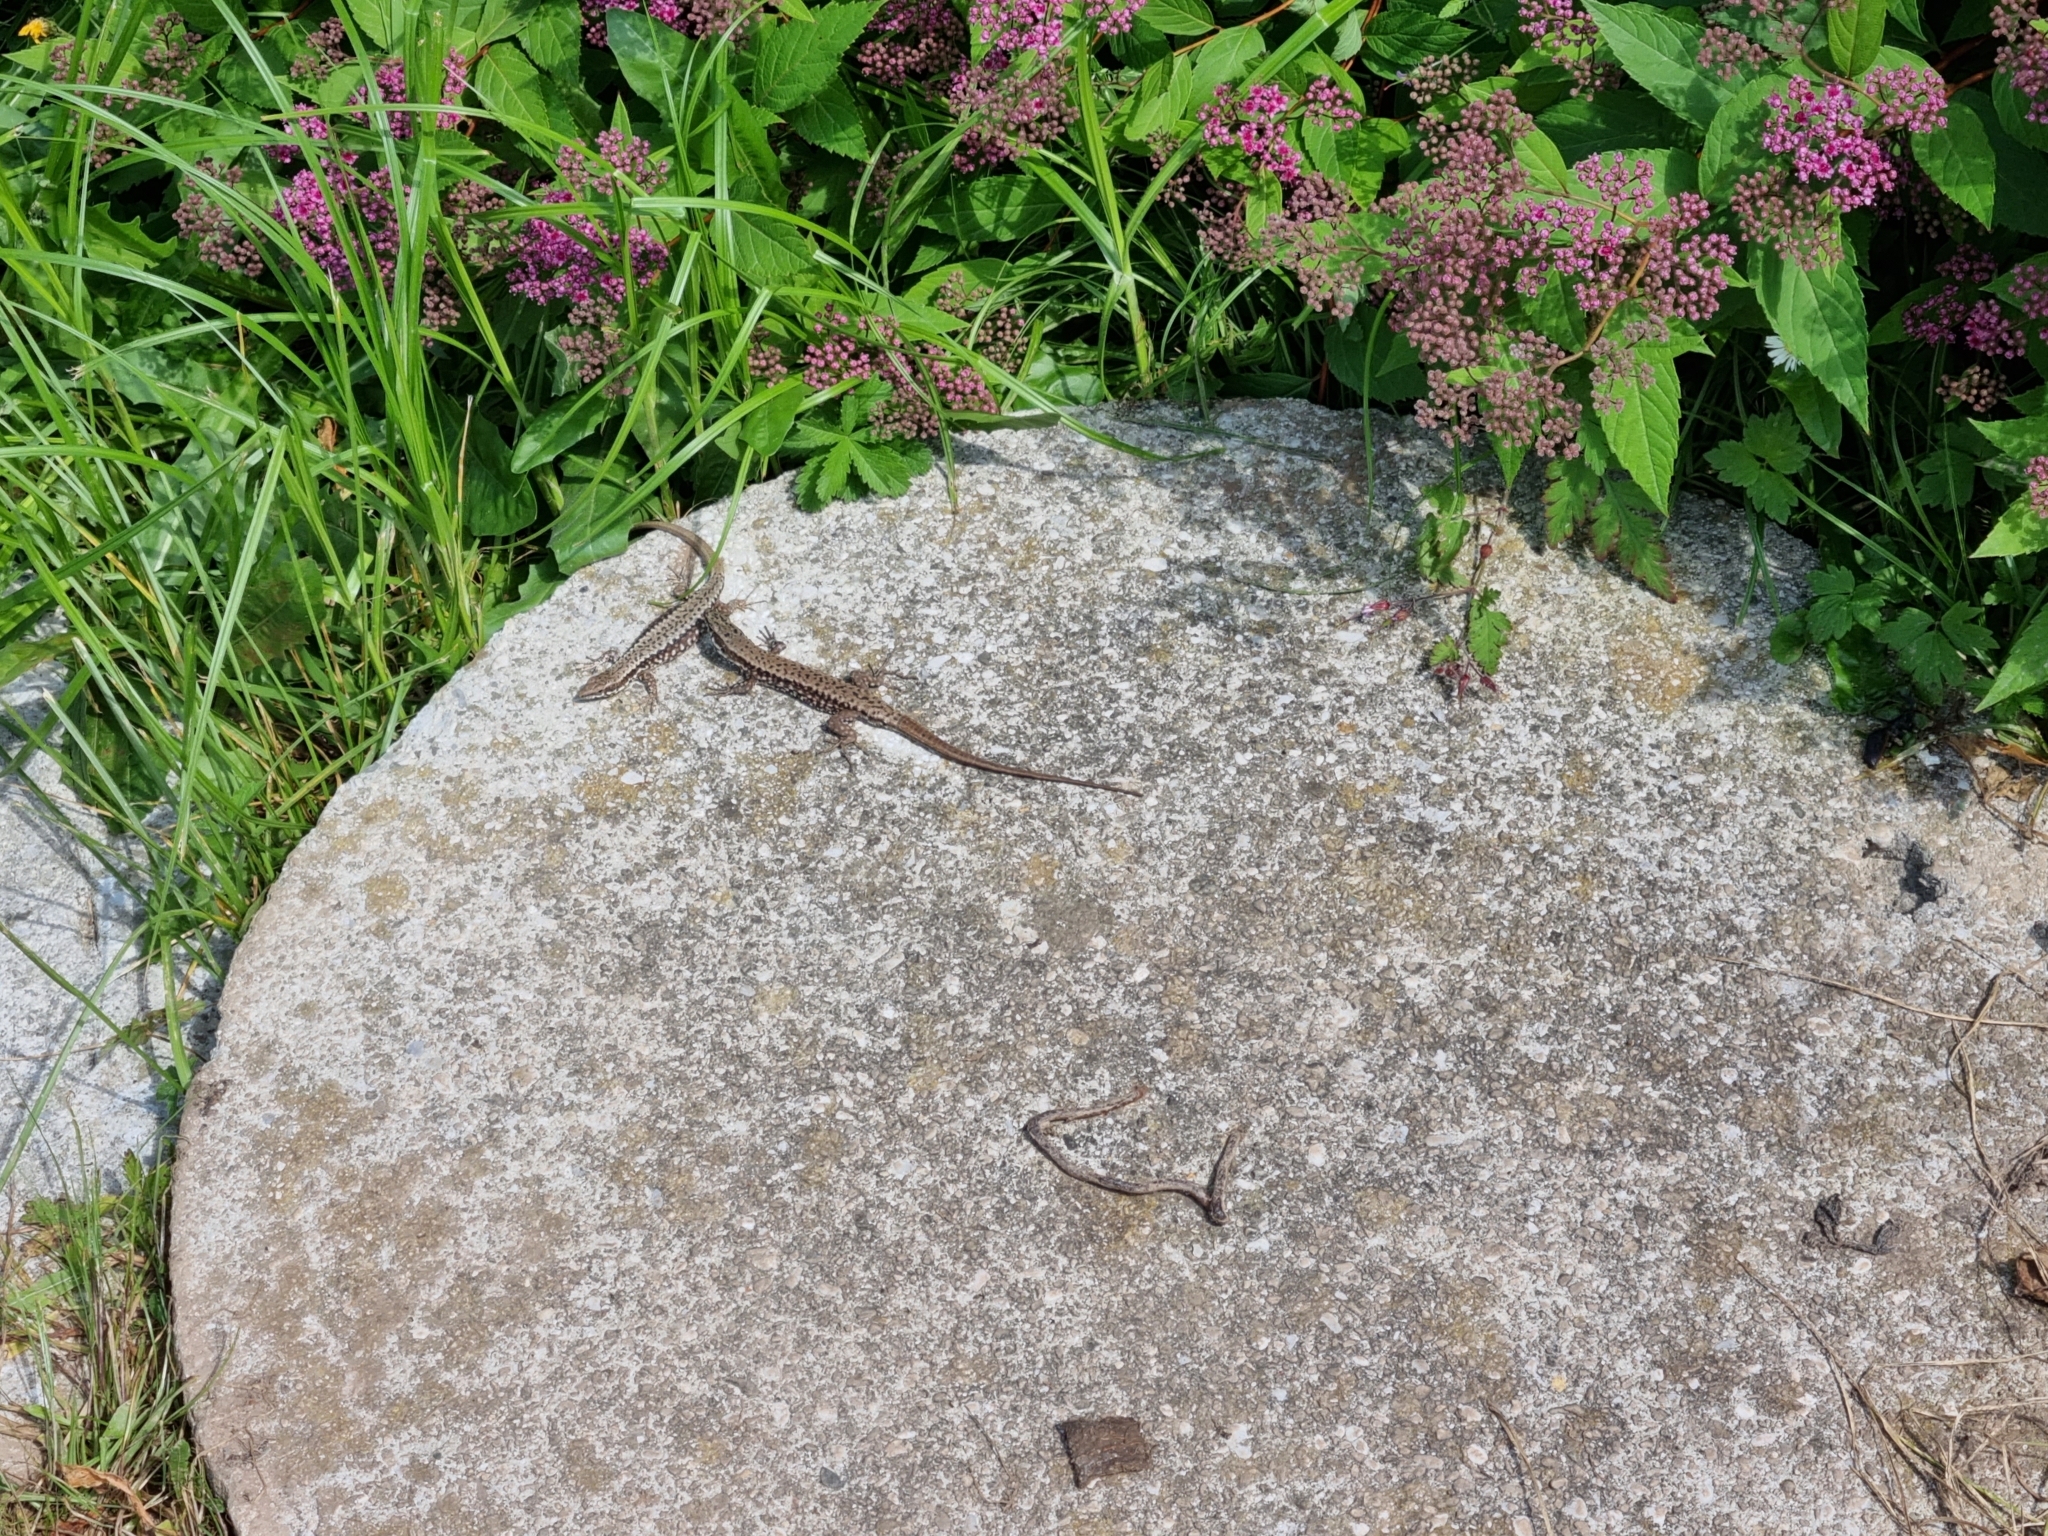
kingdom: Animalia
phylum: Chordata
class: Squamata
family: Lacertidae
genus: Podarcis
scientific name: Podarcis muralis
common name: Common wall lizard
